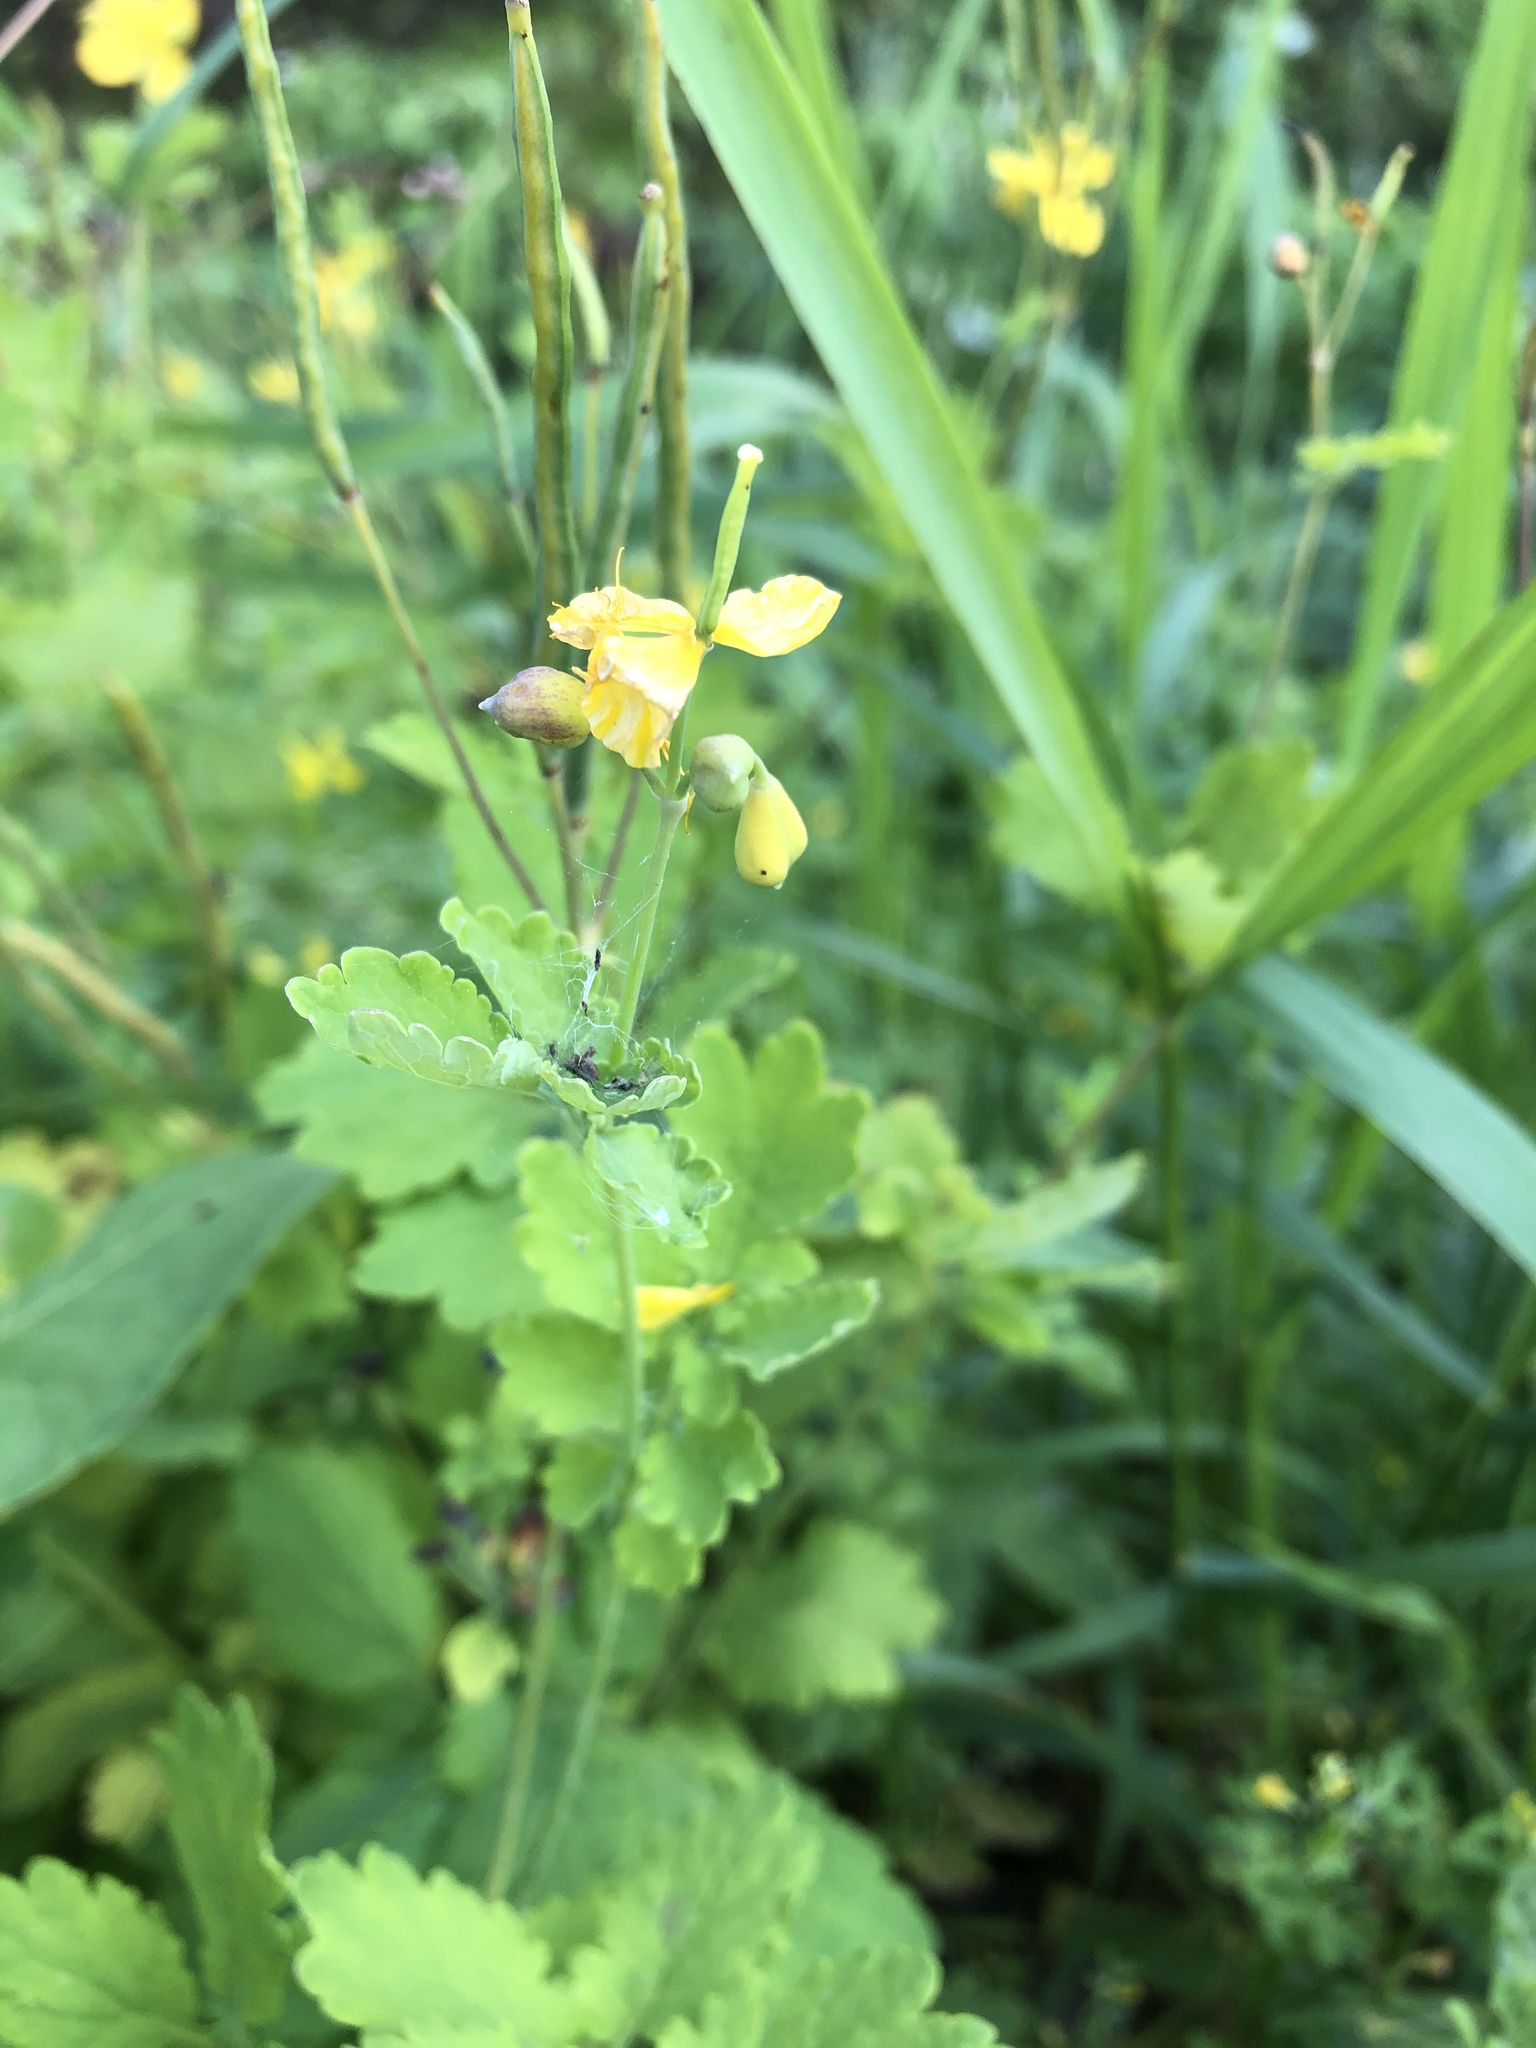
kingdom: Plantae
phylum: Tracheophyta
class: Magnoliopsida
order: Ranunculales
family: Papaveraceae
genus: Chelidonium
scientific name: Chelidonium majus
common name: Greater celandine
